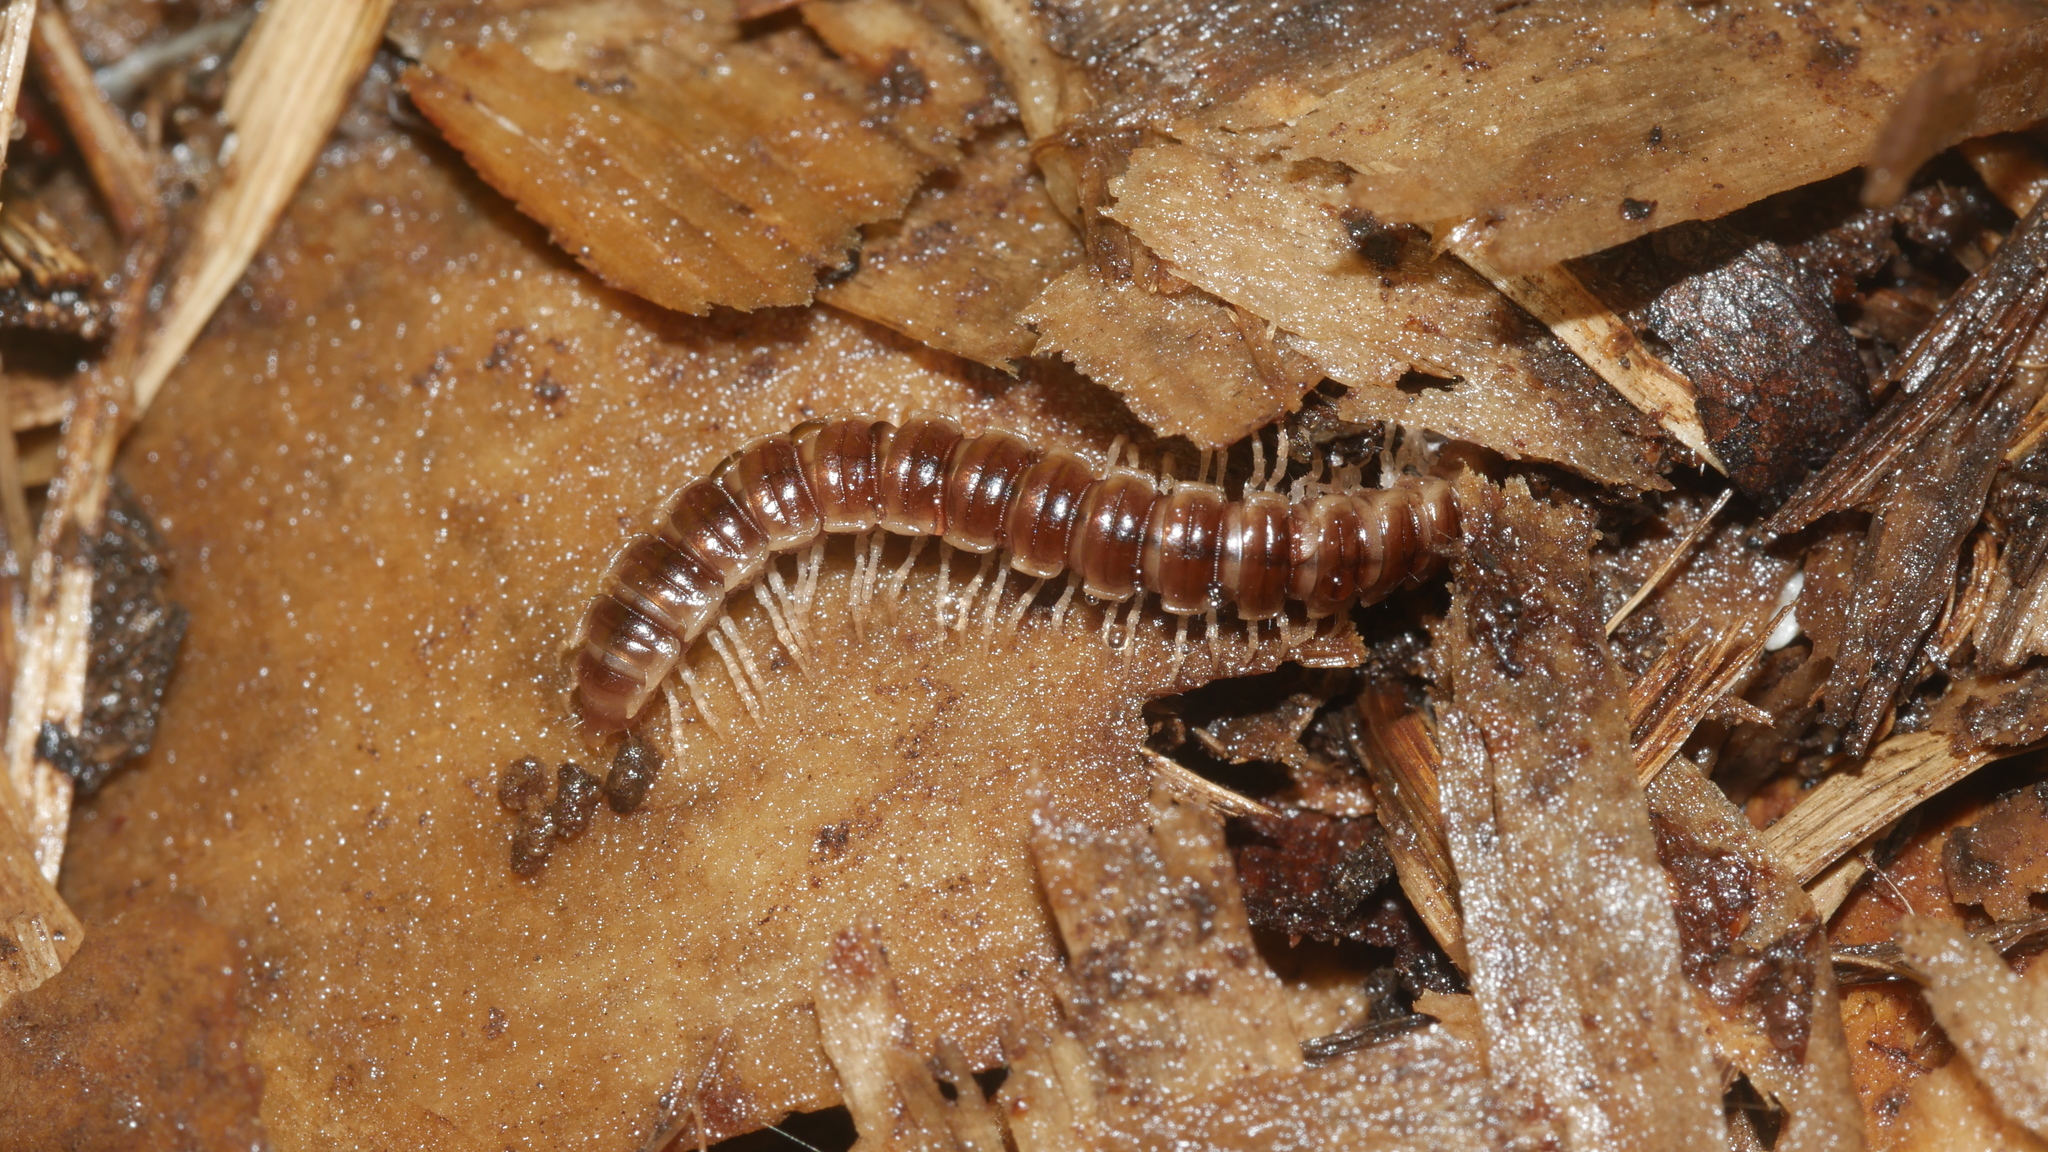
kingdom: Animalia
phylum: Arthropoda
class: Diplopoda
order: Polydesmida
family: Paradoxosomatidae
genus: Oxidus
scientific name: Oxidus gracilis
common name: Greenhouse millipede
